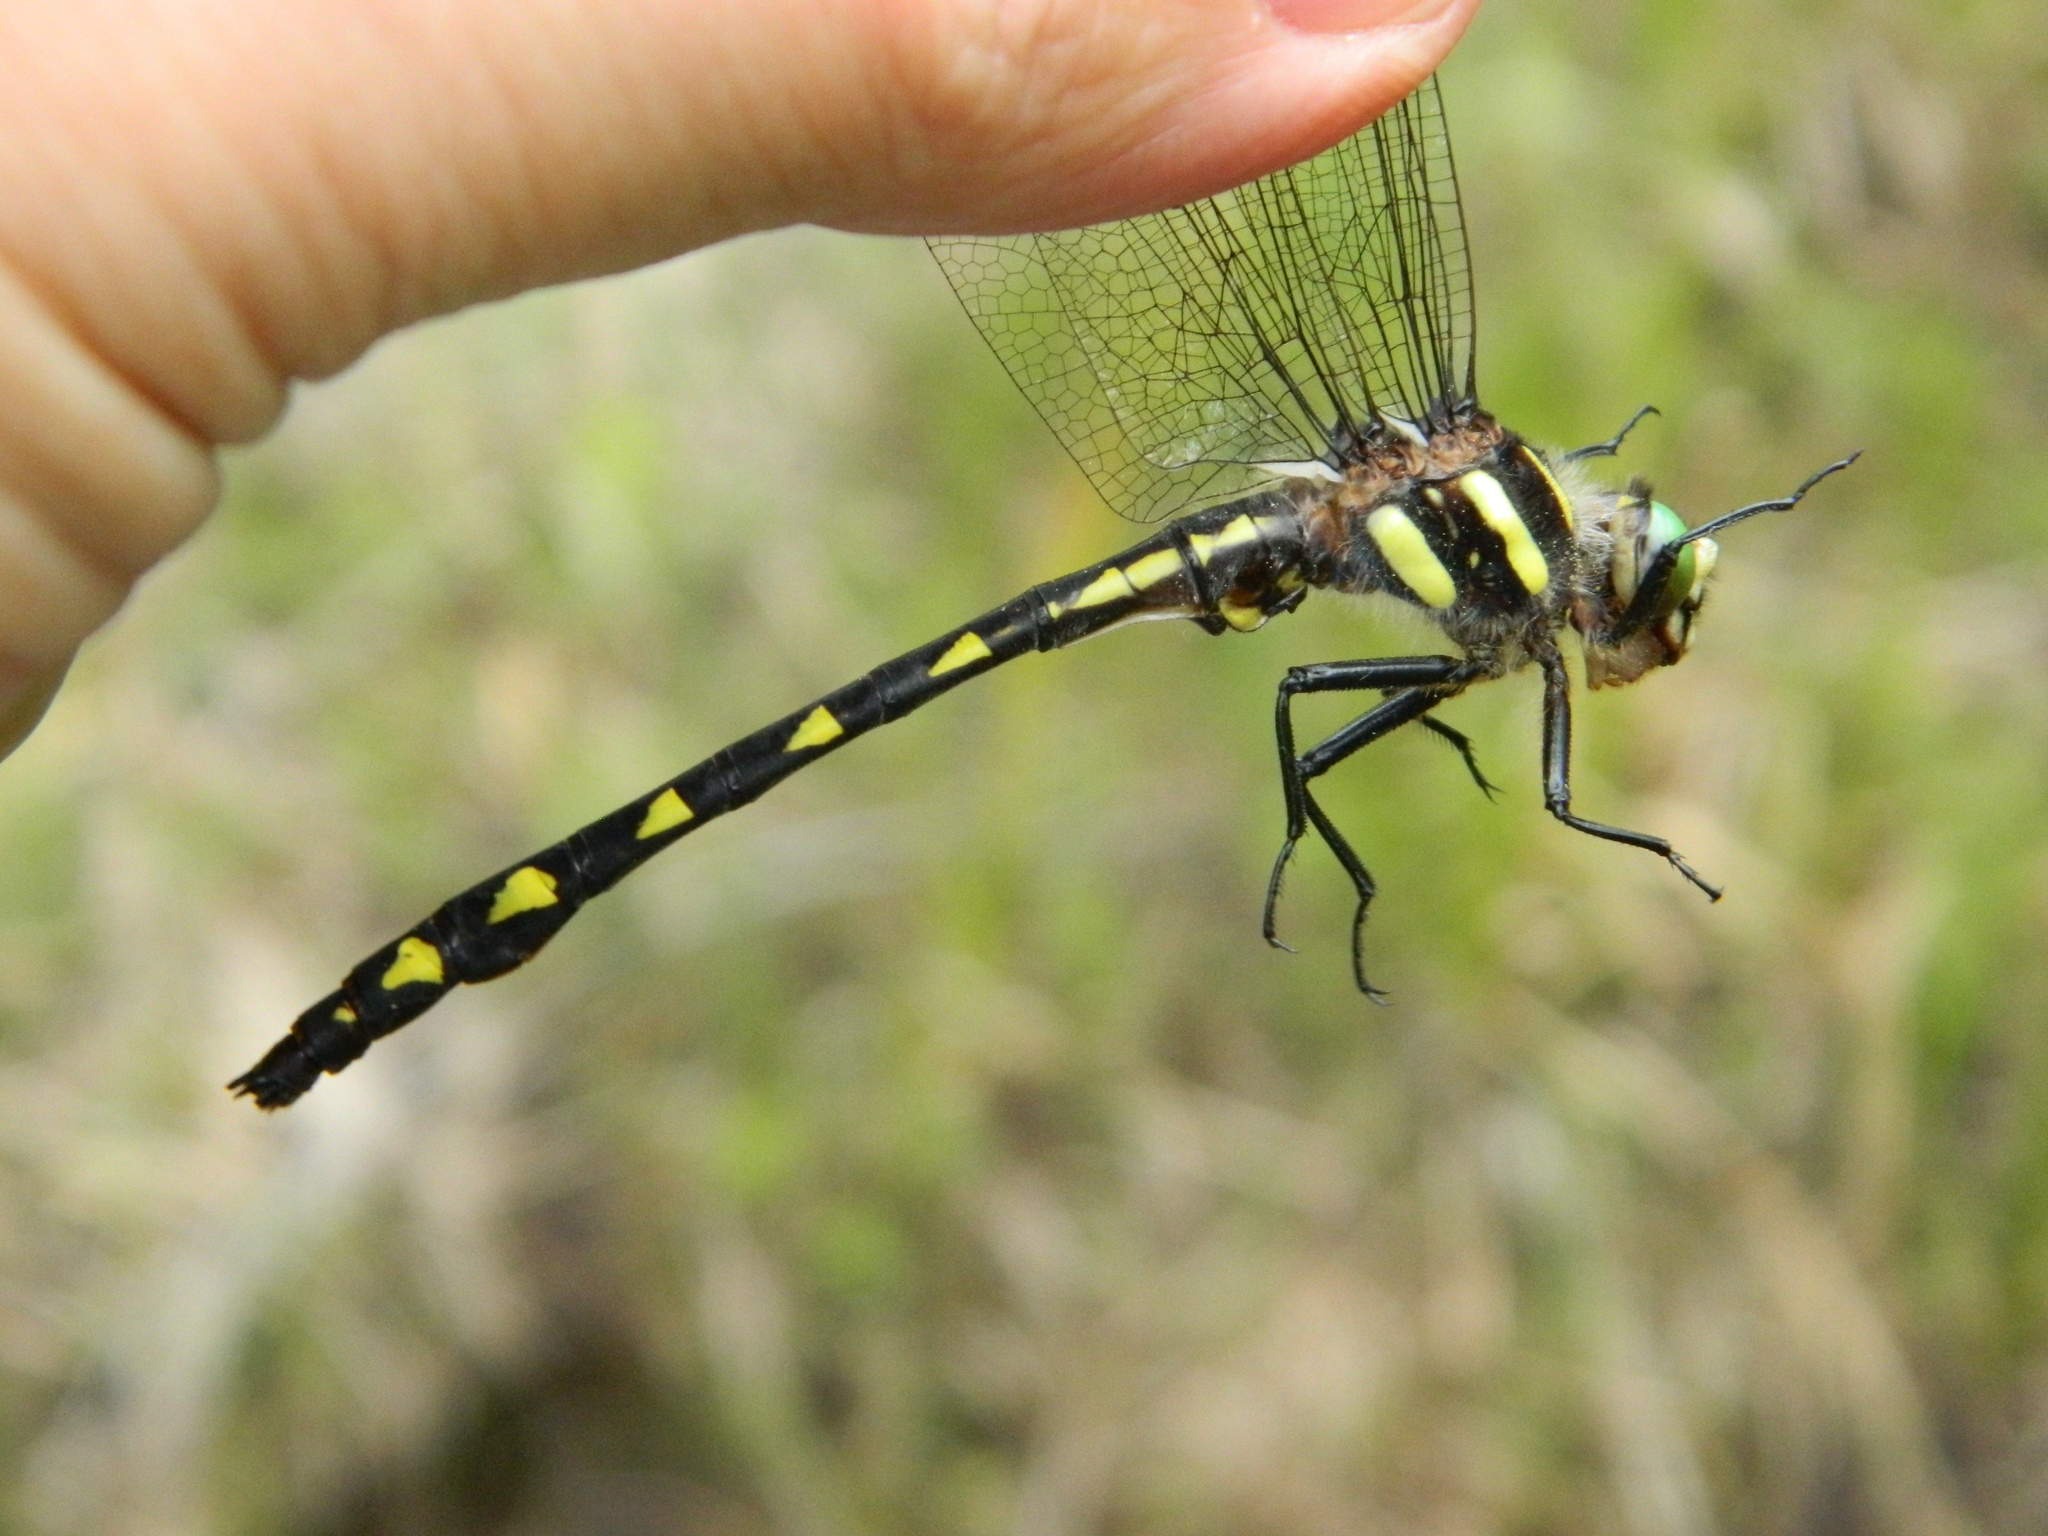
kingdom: Animalia
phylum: Arthropoda
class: Insecta
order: Odonata
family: Cordulegastridae
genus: Cordulegaster
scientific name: Cordulegaster diastatops
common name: Delta-spotted spiketail
